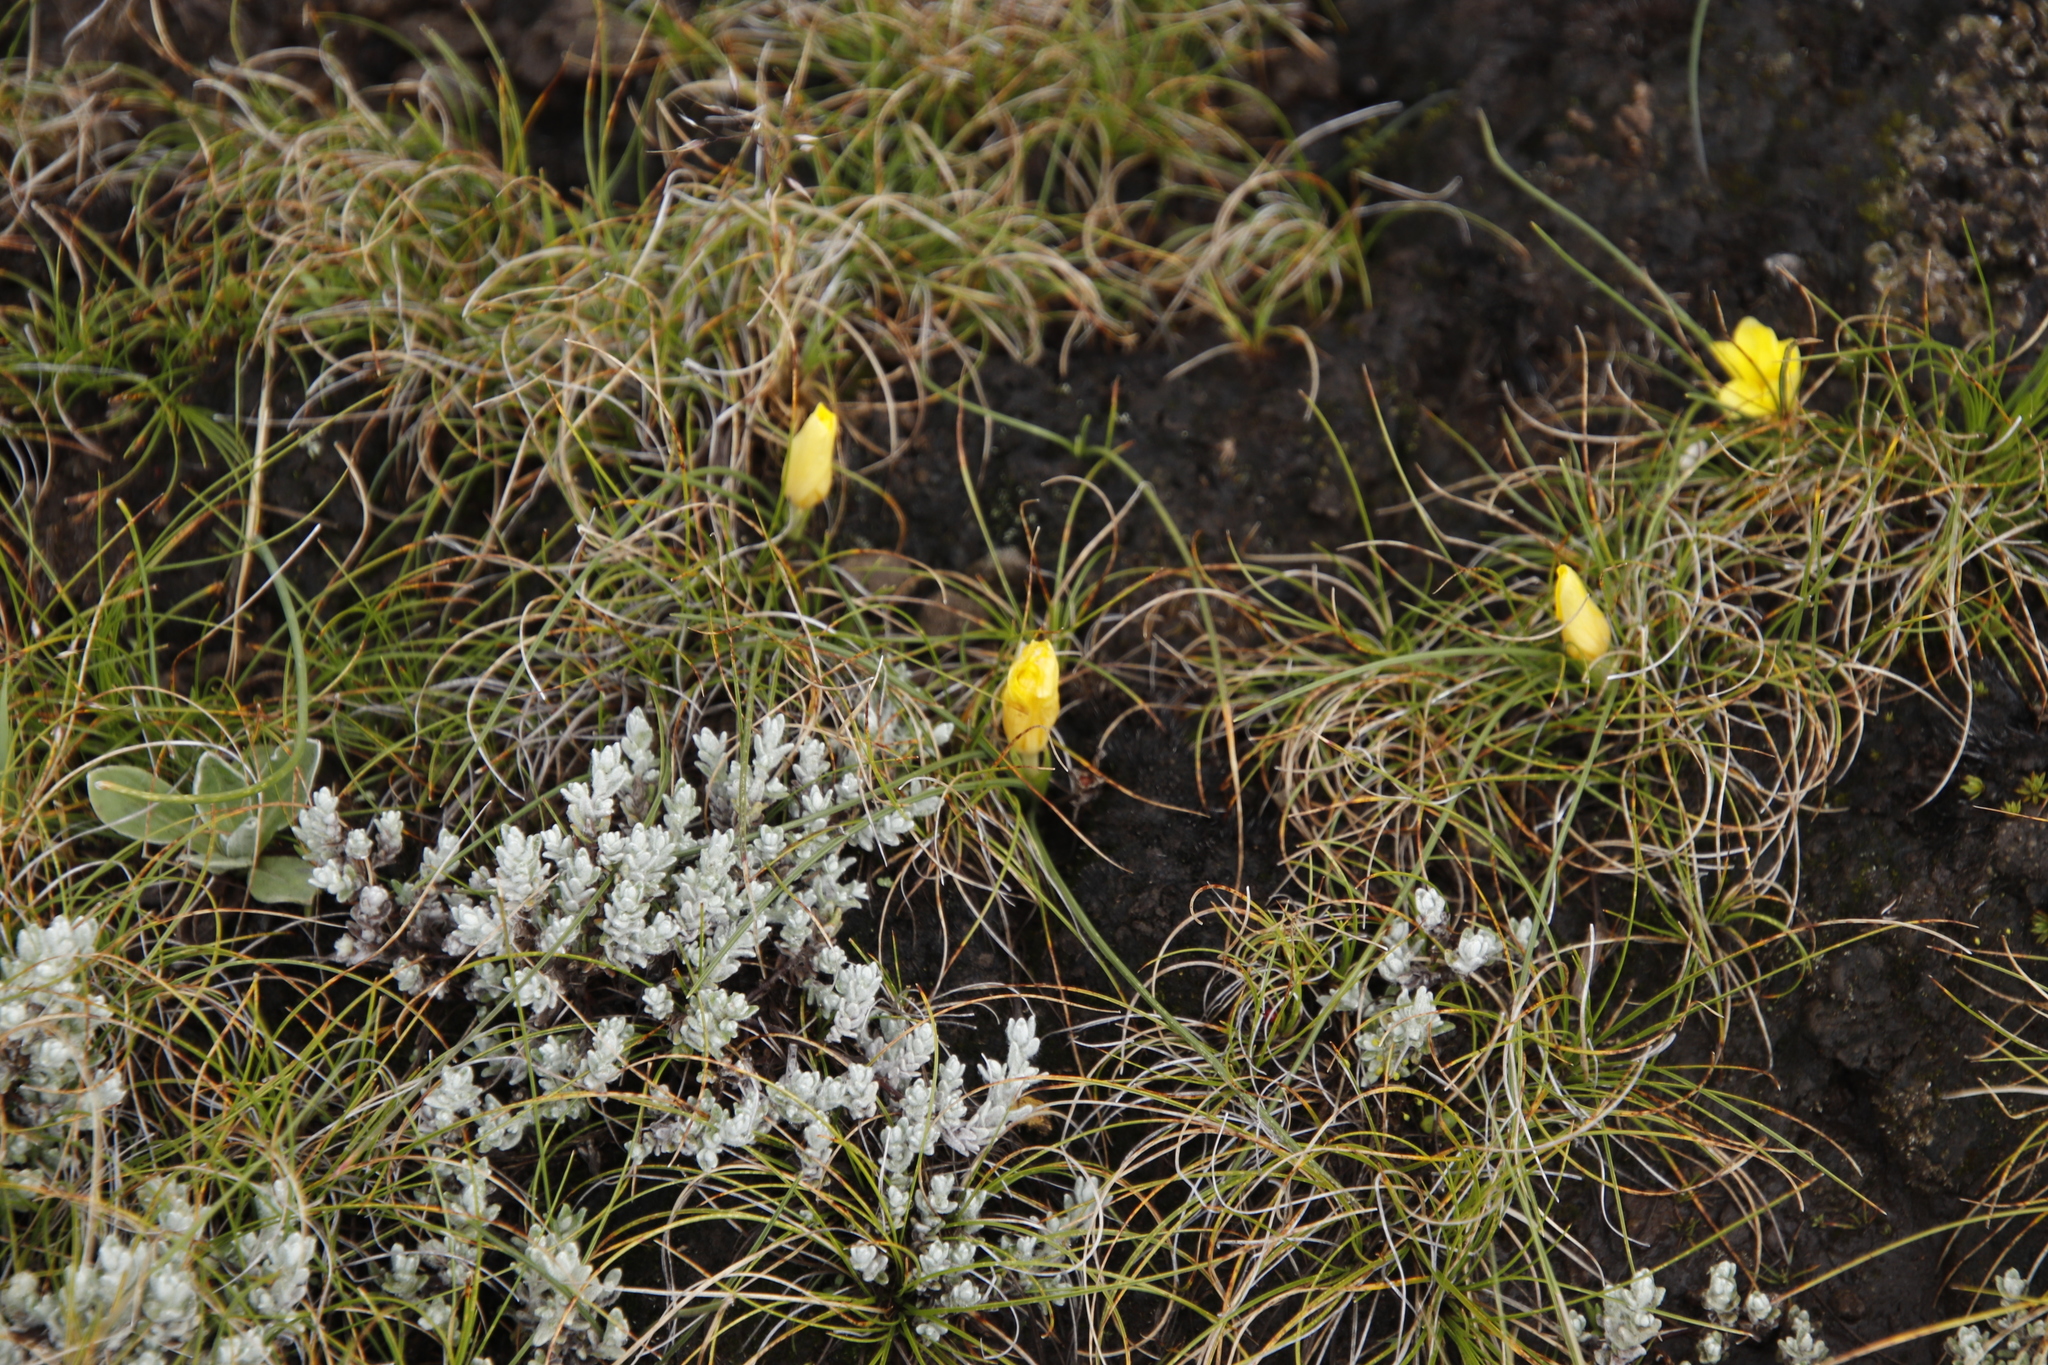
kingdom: Plantae
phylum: Tracheophyta
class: Liliopsida
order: Asparagales
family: Iridaceae
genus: Romulea
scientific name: Romulea macowanii
